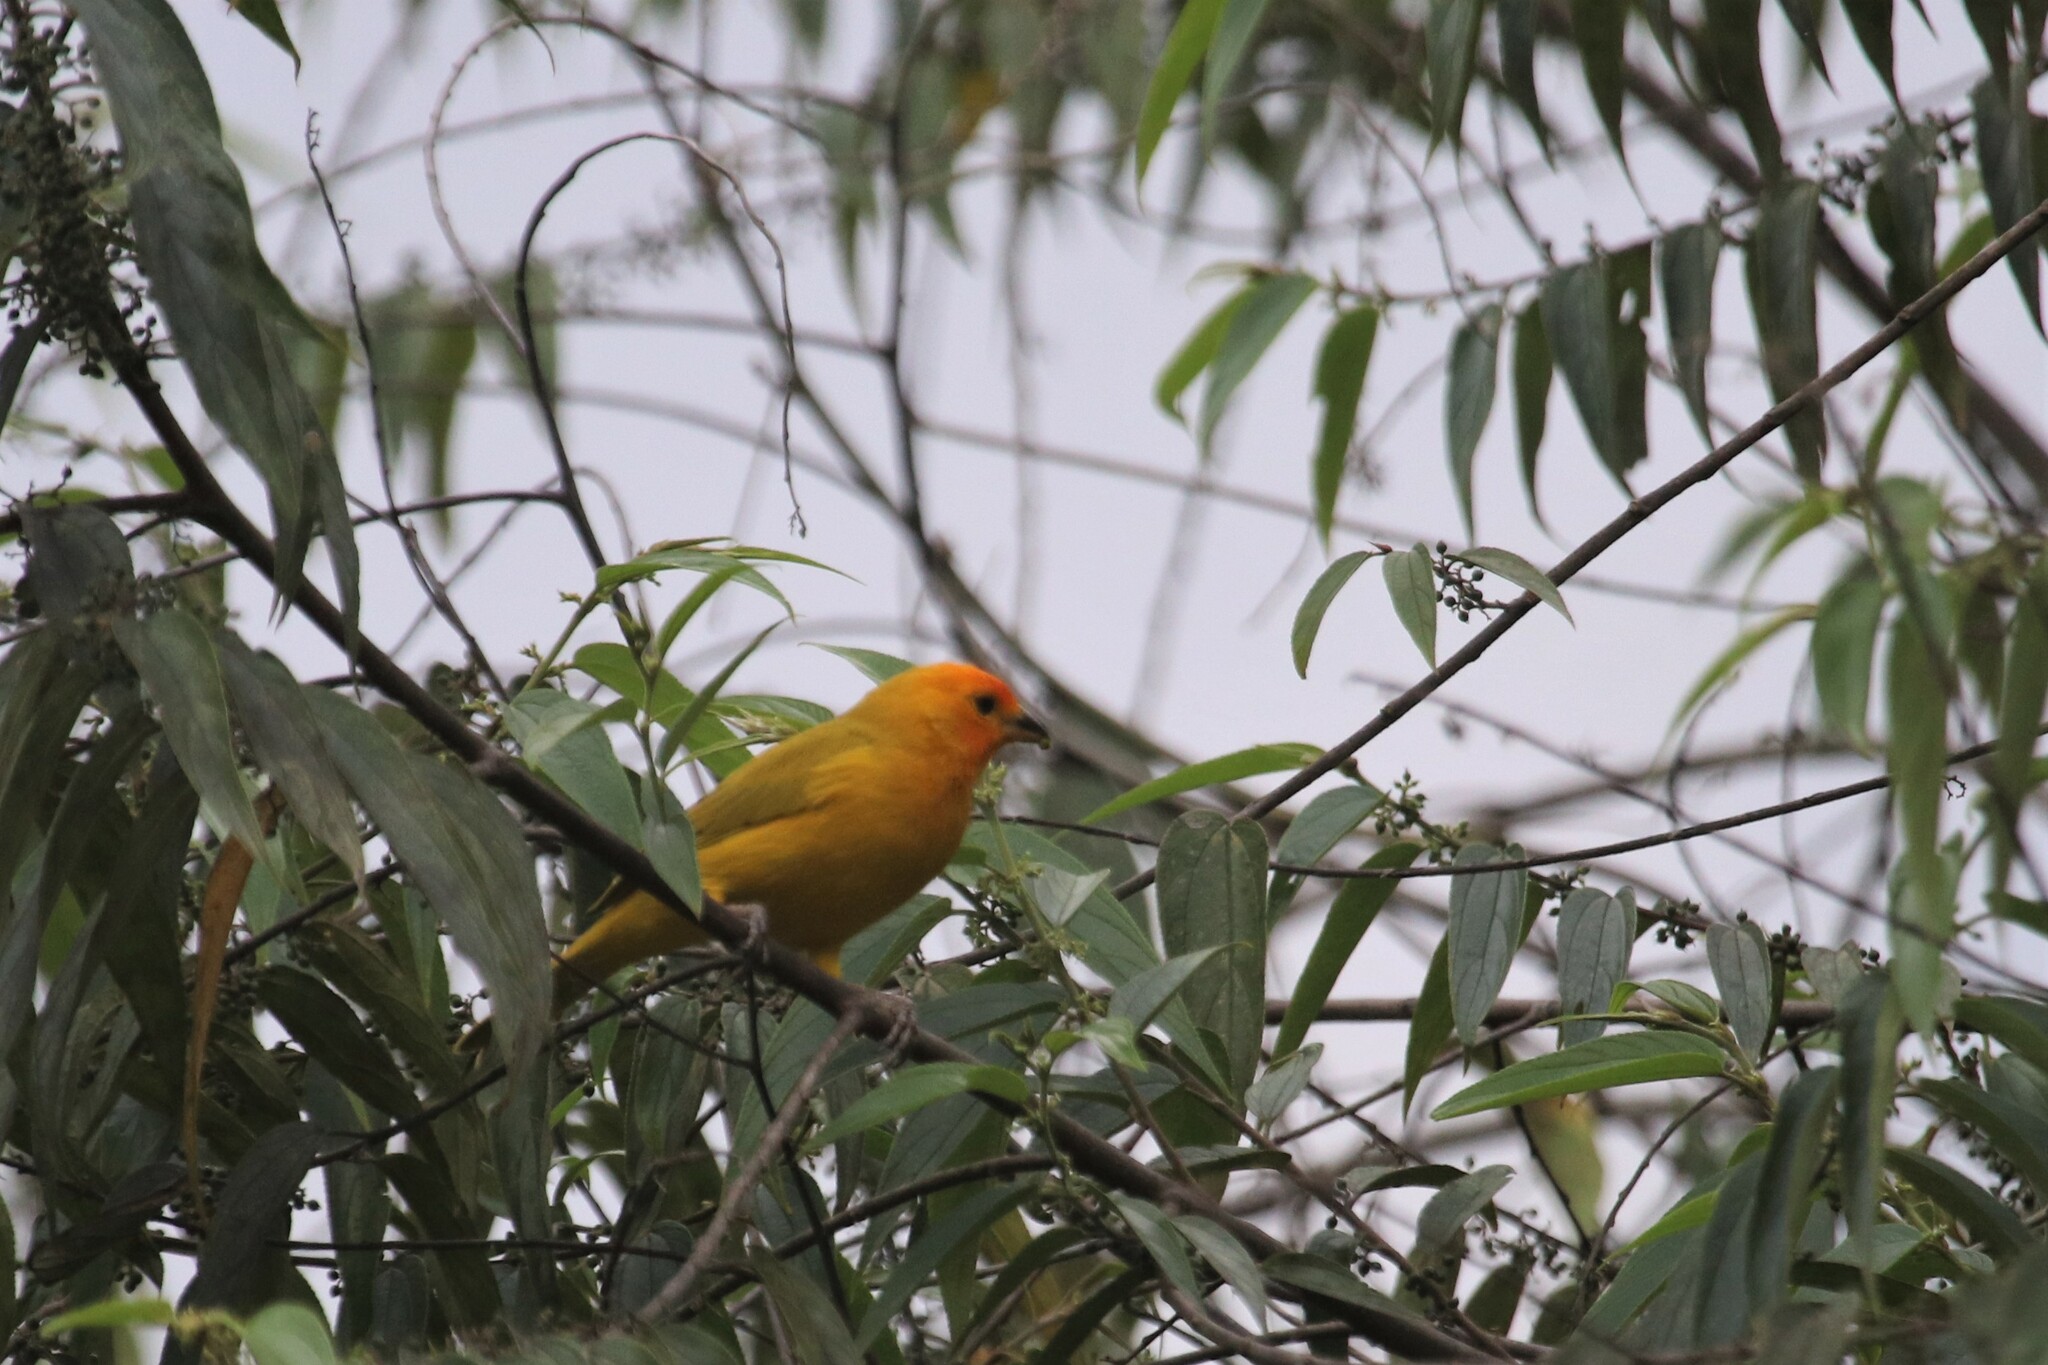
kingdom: Animalia
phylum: Chordata
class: Aves
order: Passeriformes
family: Thraupidae
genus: Sicalis
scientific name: Sicalis flaveola
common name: Saffron finch
